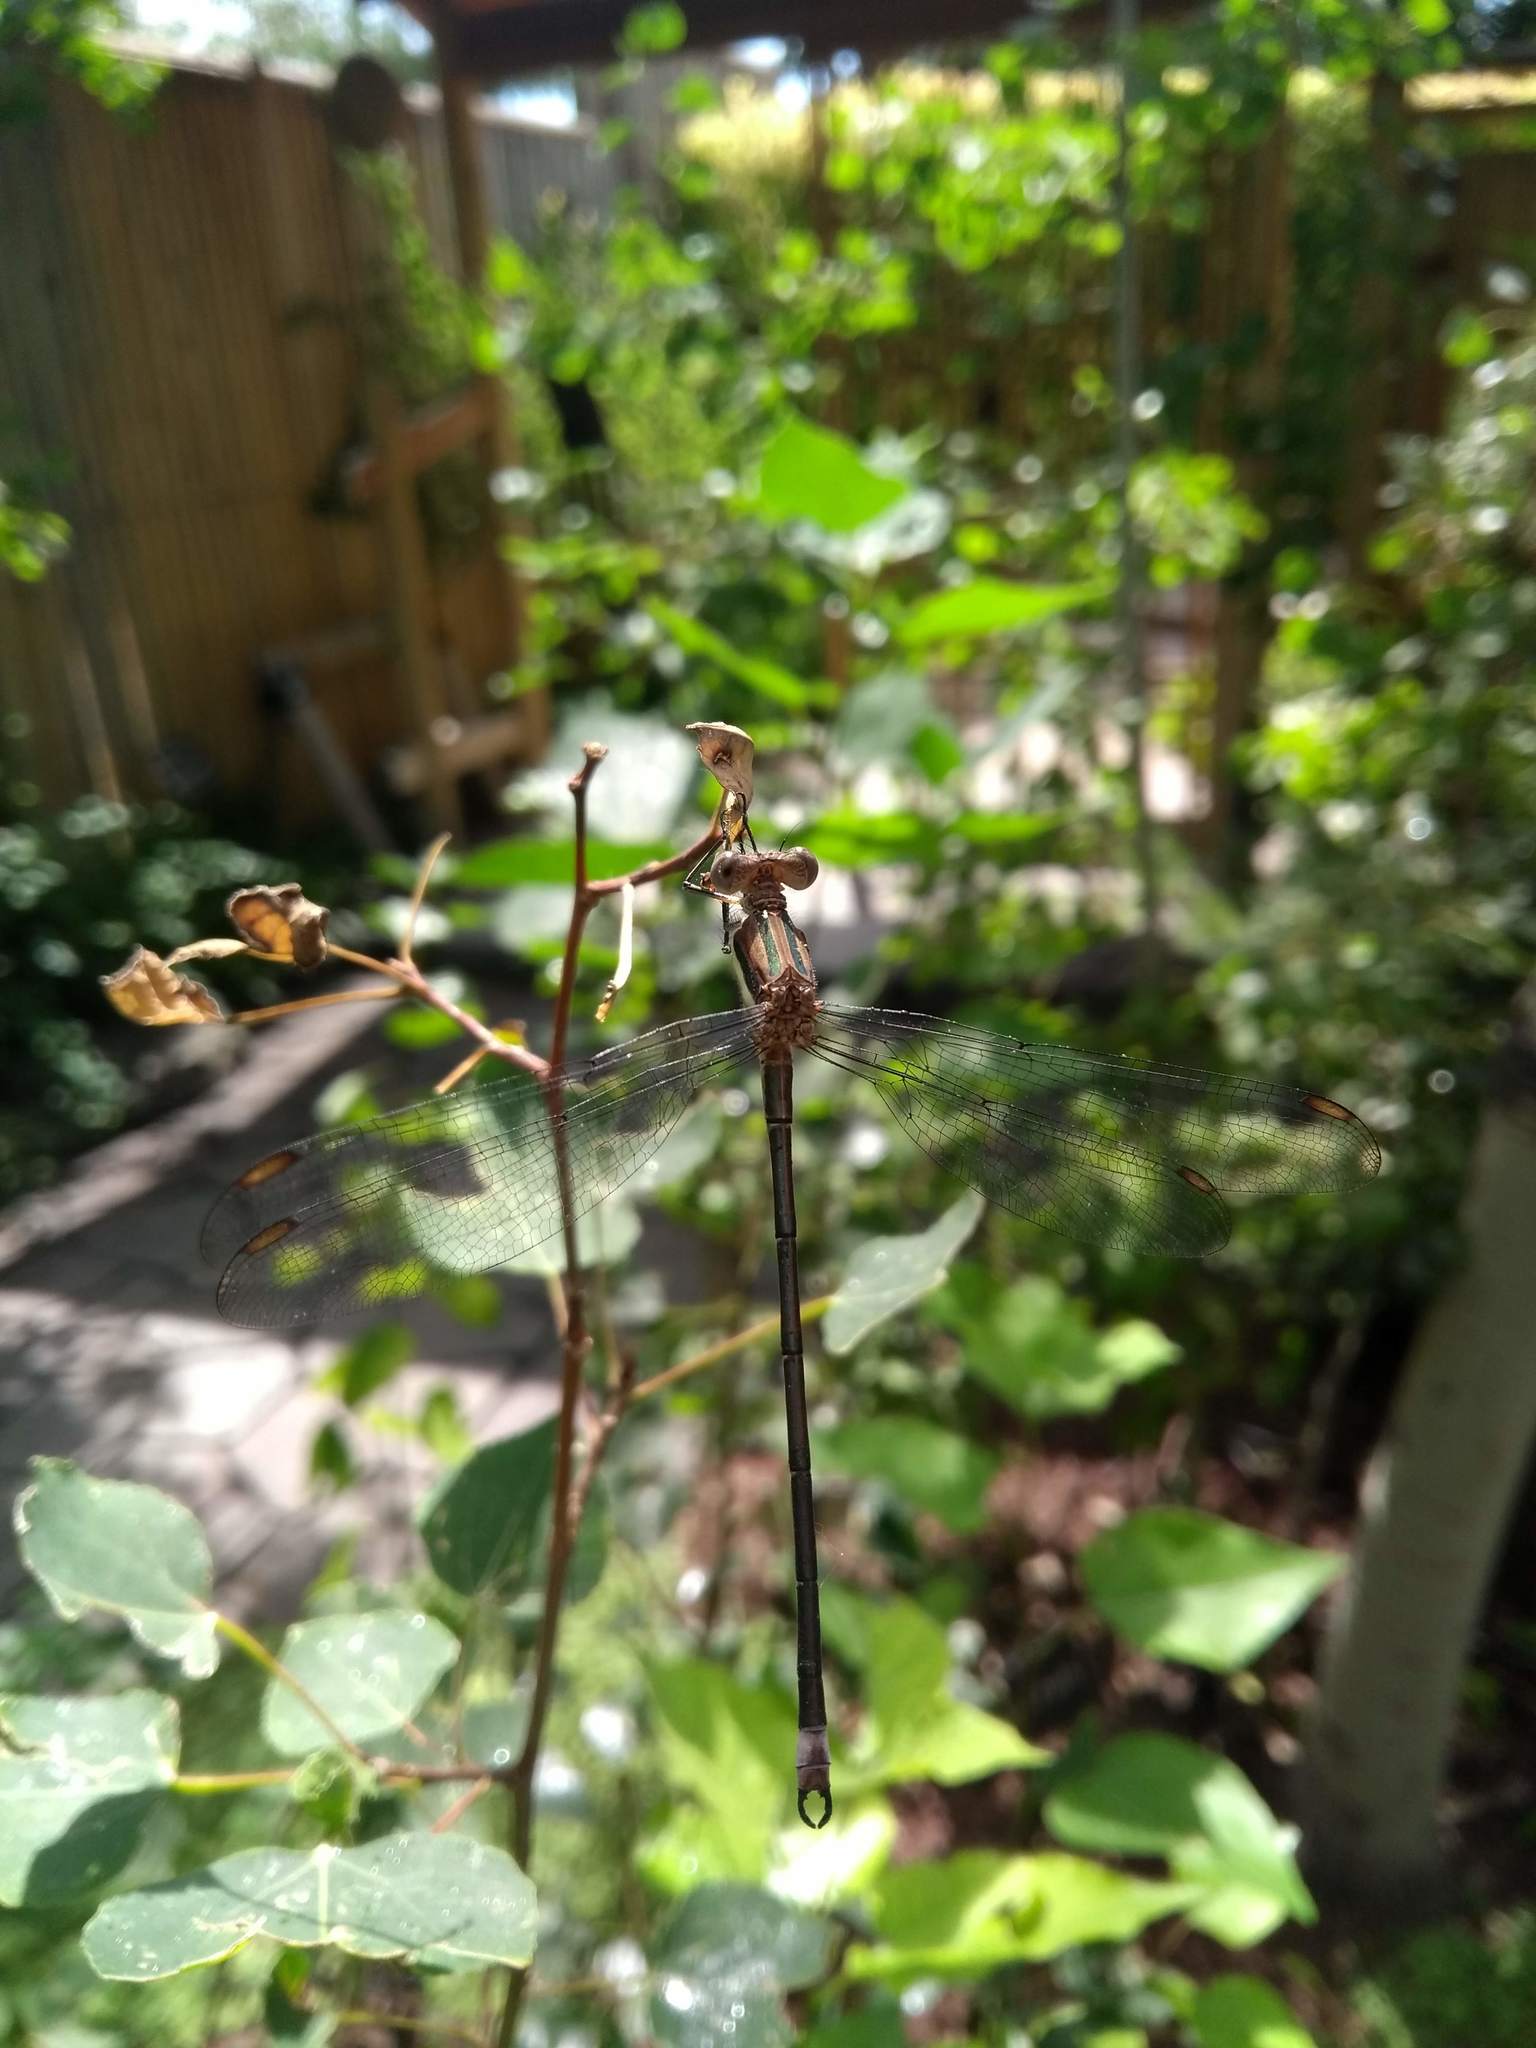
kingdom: Animalia
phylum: Arthropoda
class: Insecta
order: Odonata
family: Lestidae
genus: Archilestes
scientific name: Archilestes grandis
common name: Great spreadwing
